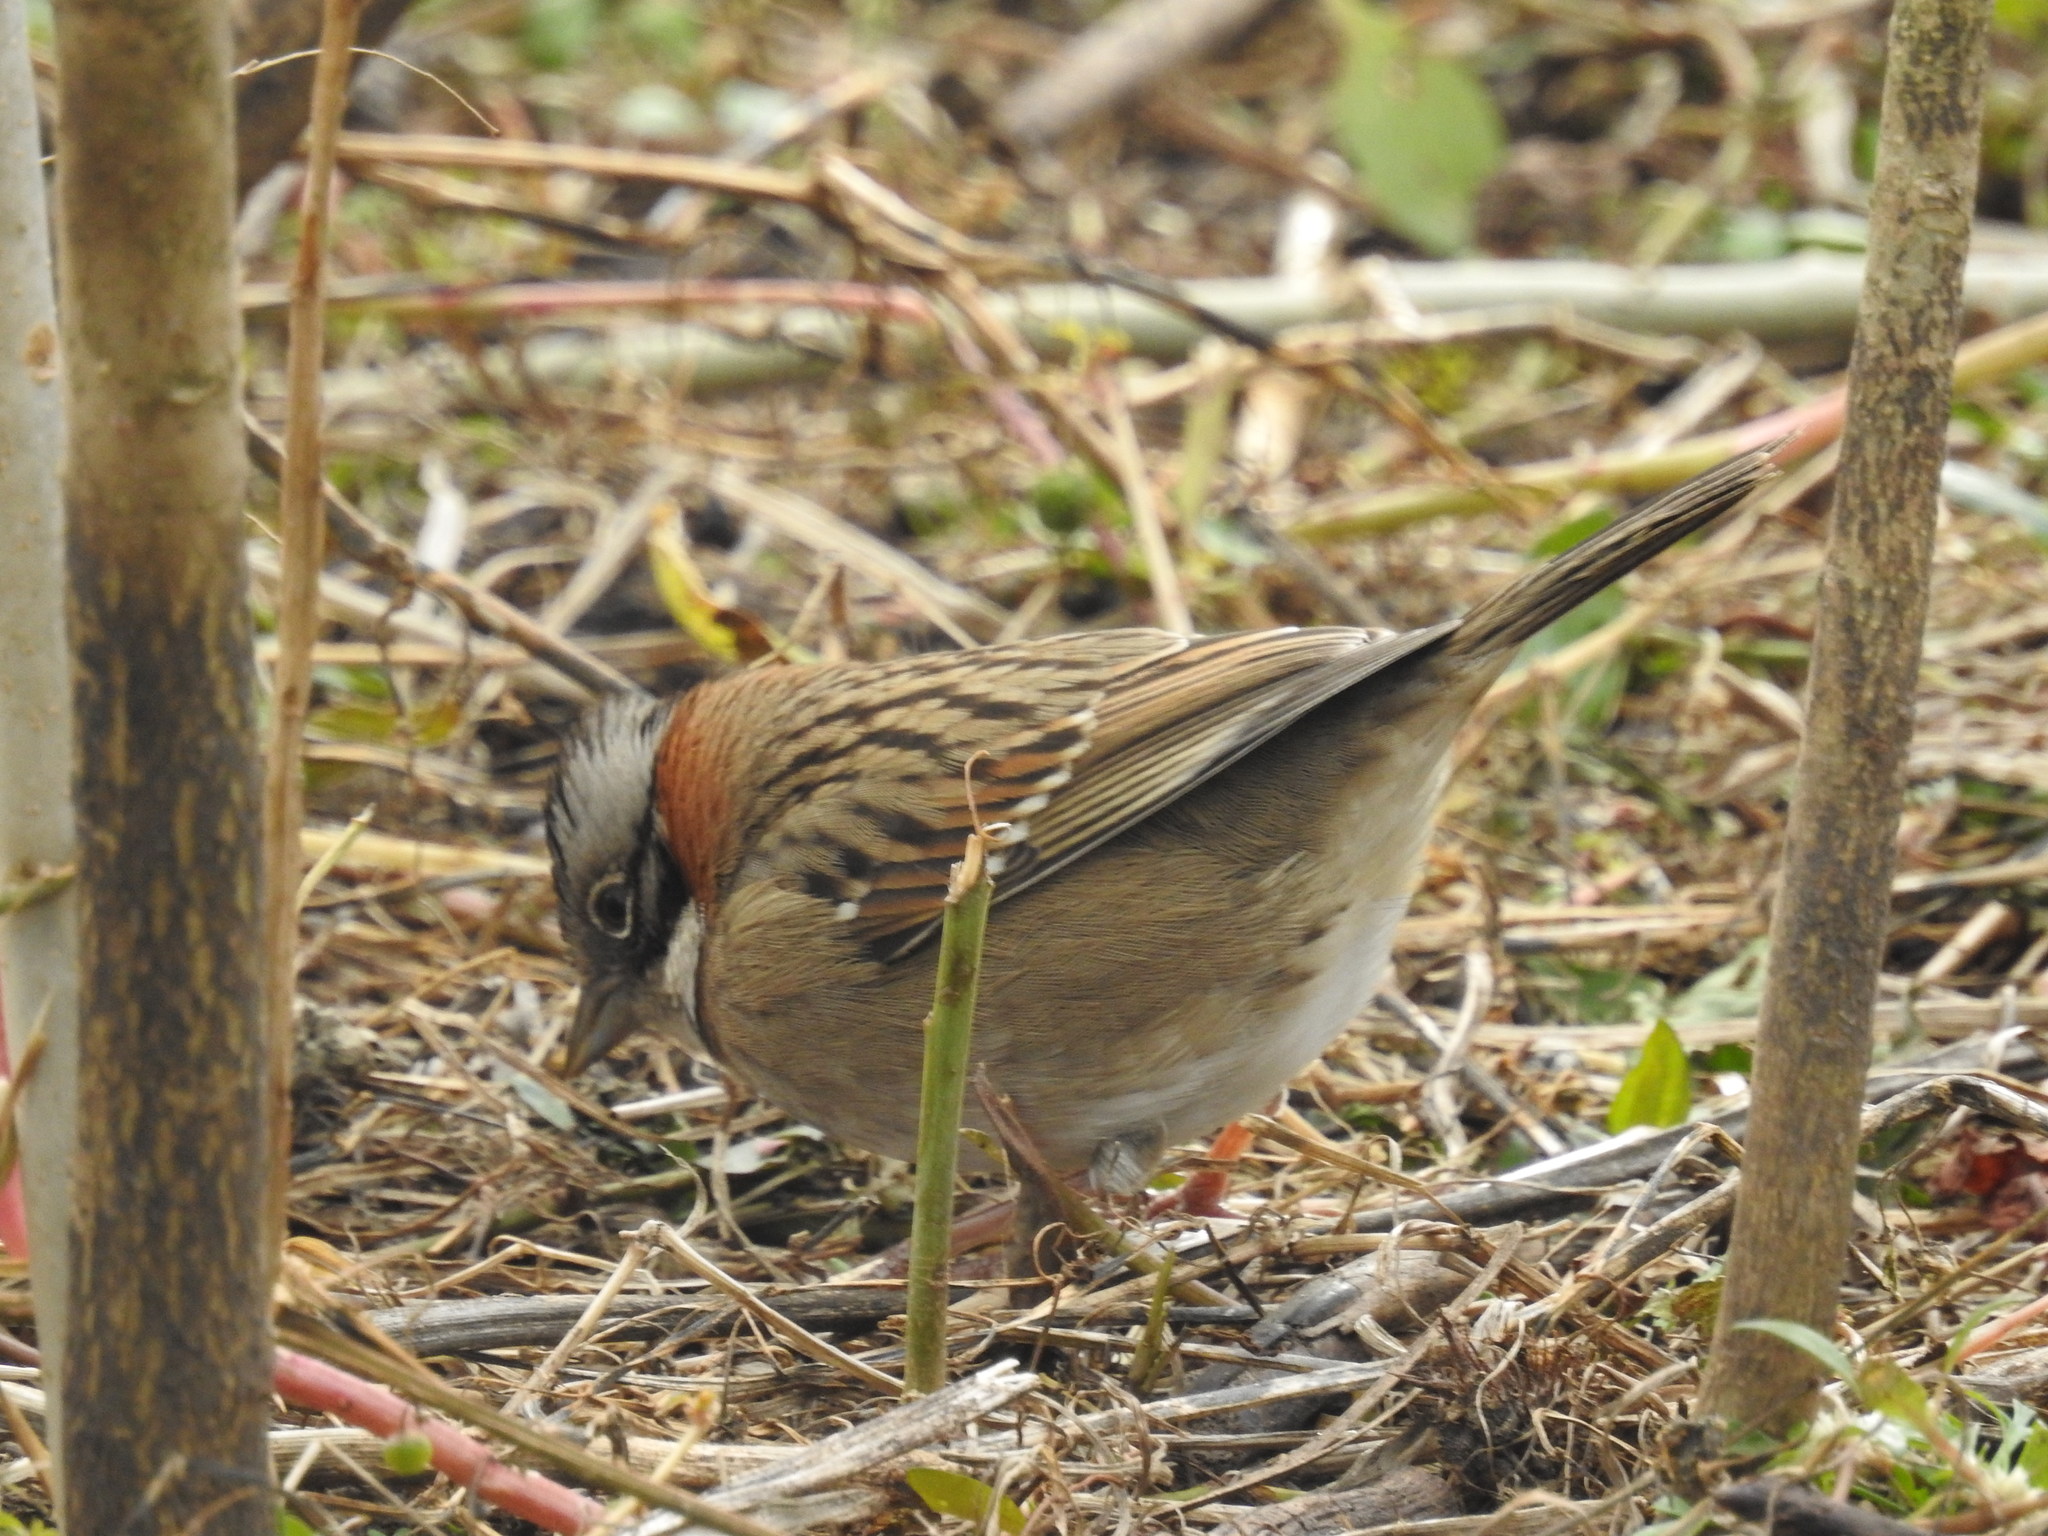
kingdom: Animalia
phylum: Chordata
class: Aves
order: Passeriformes
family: Passerellidae
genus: Zonotrichia
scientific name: Zonotrichia capensis
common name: Rufous-collared sparrow
